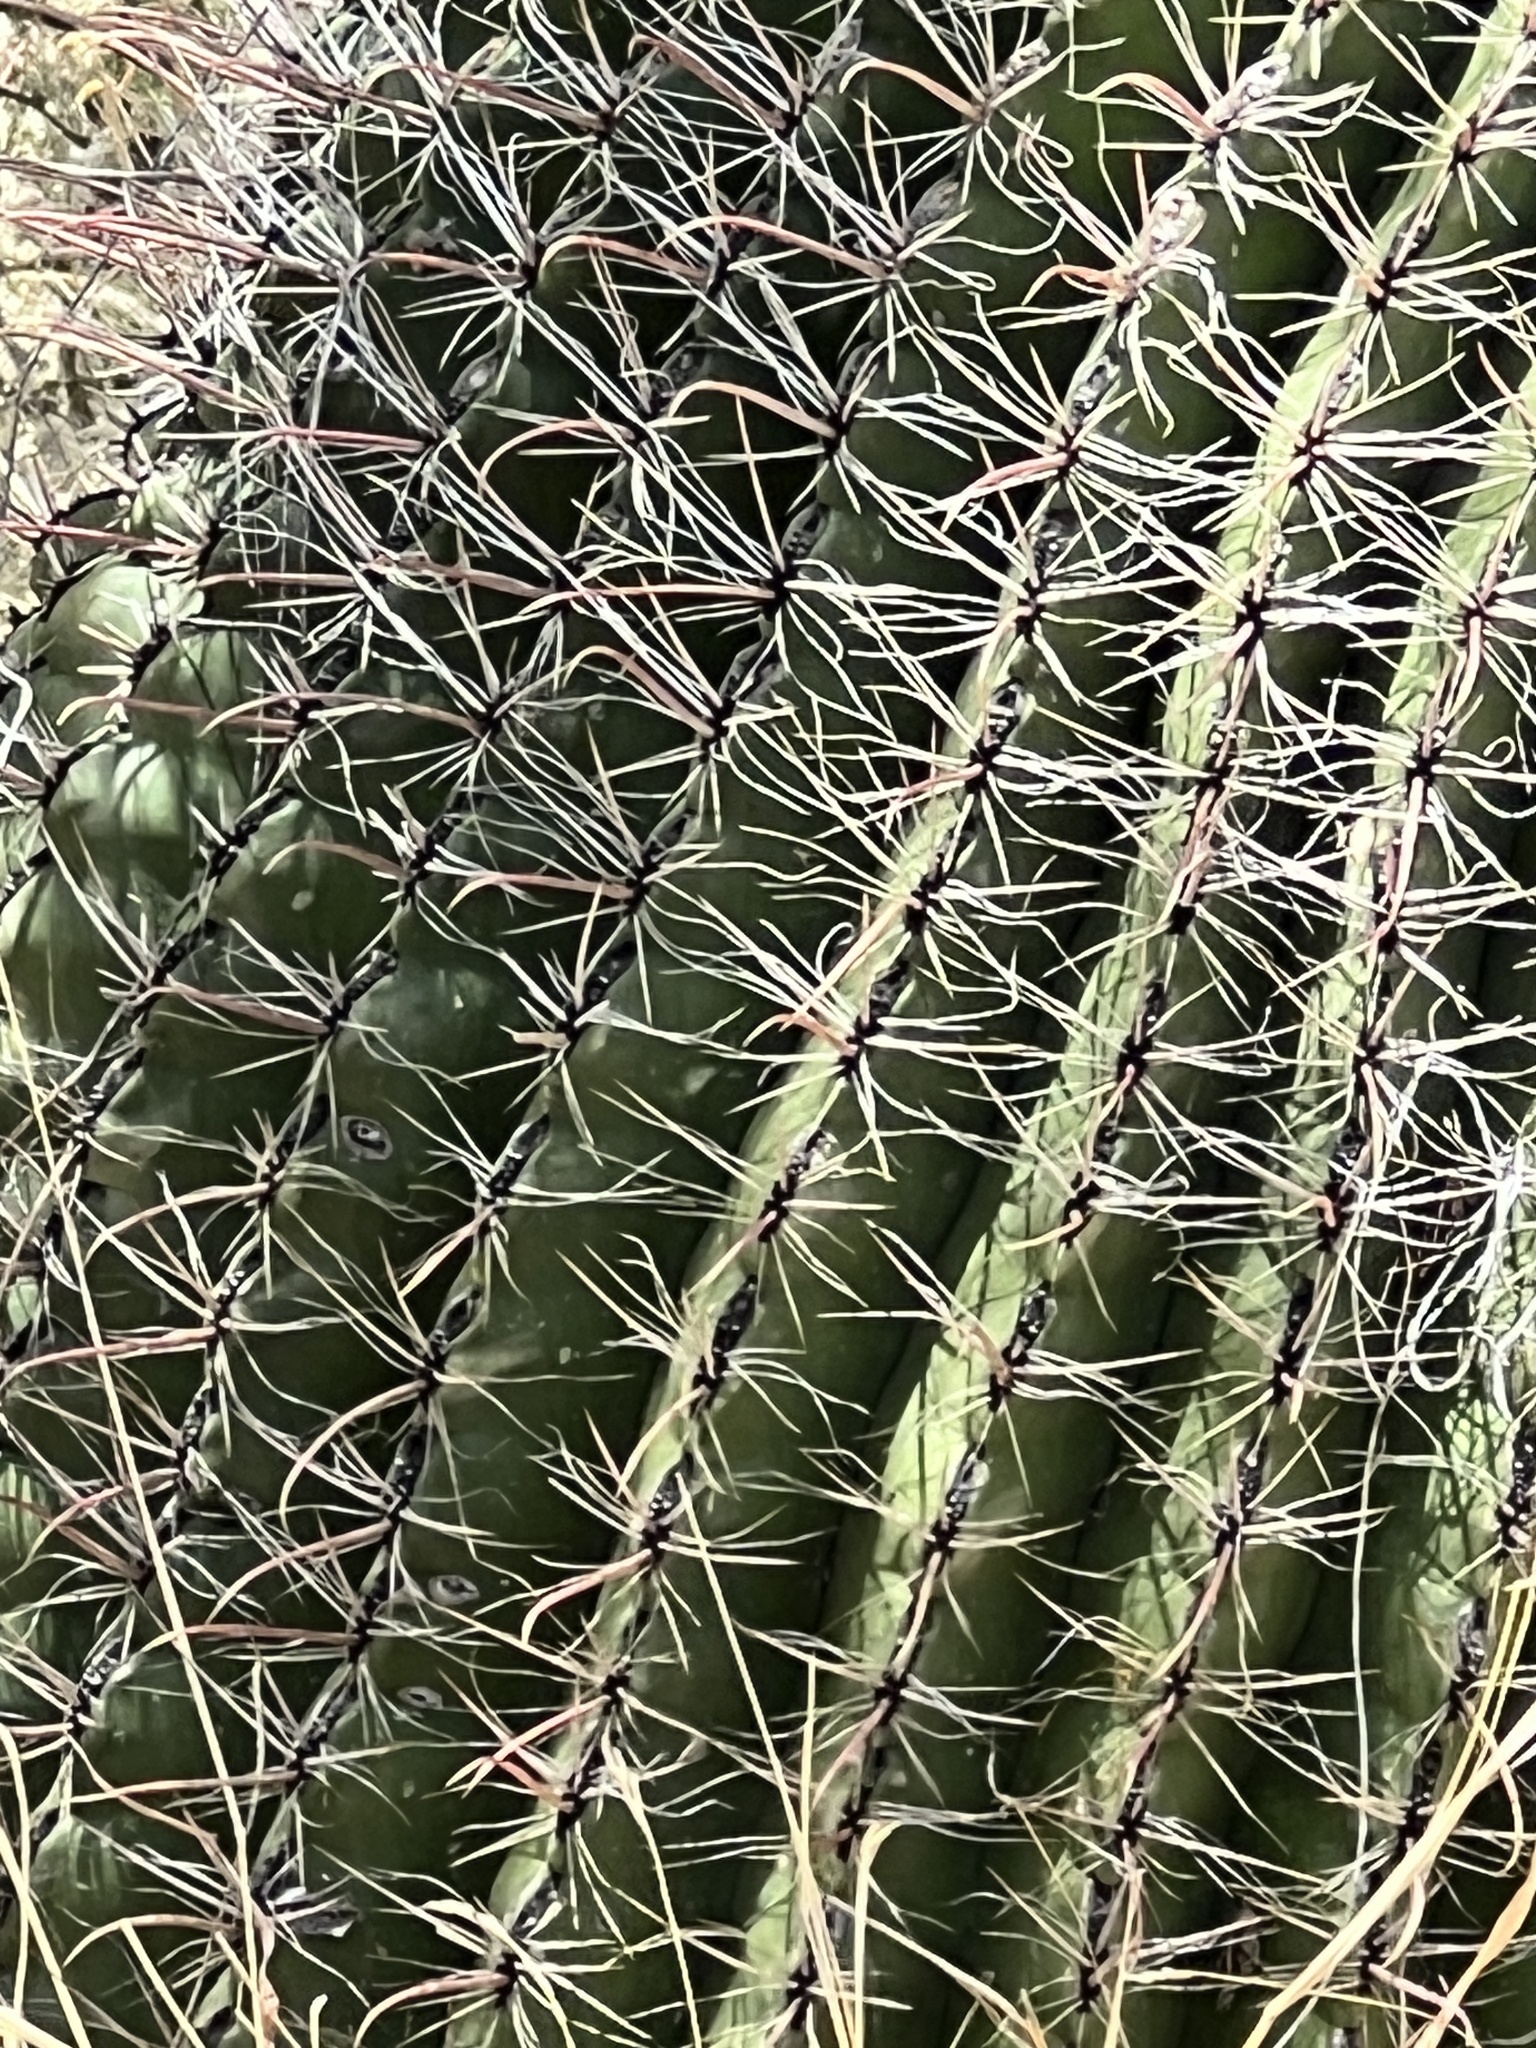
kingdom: Plantae
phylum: Tracheophyta
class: Magnoliopsida
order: Caryophyllales
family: Cactaceae
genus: Ferocactus
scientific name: Ferocactus wislizeni
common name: Candy barrel cactus
